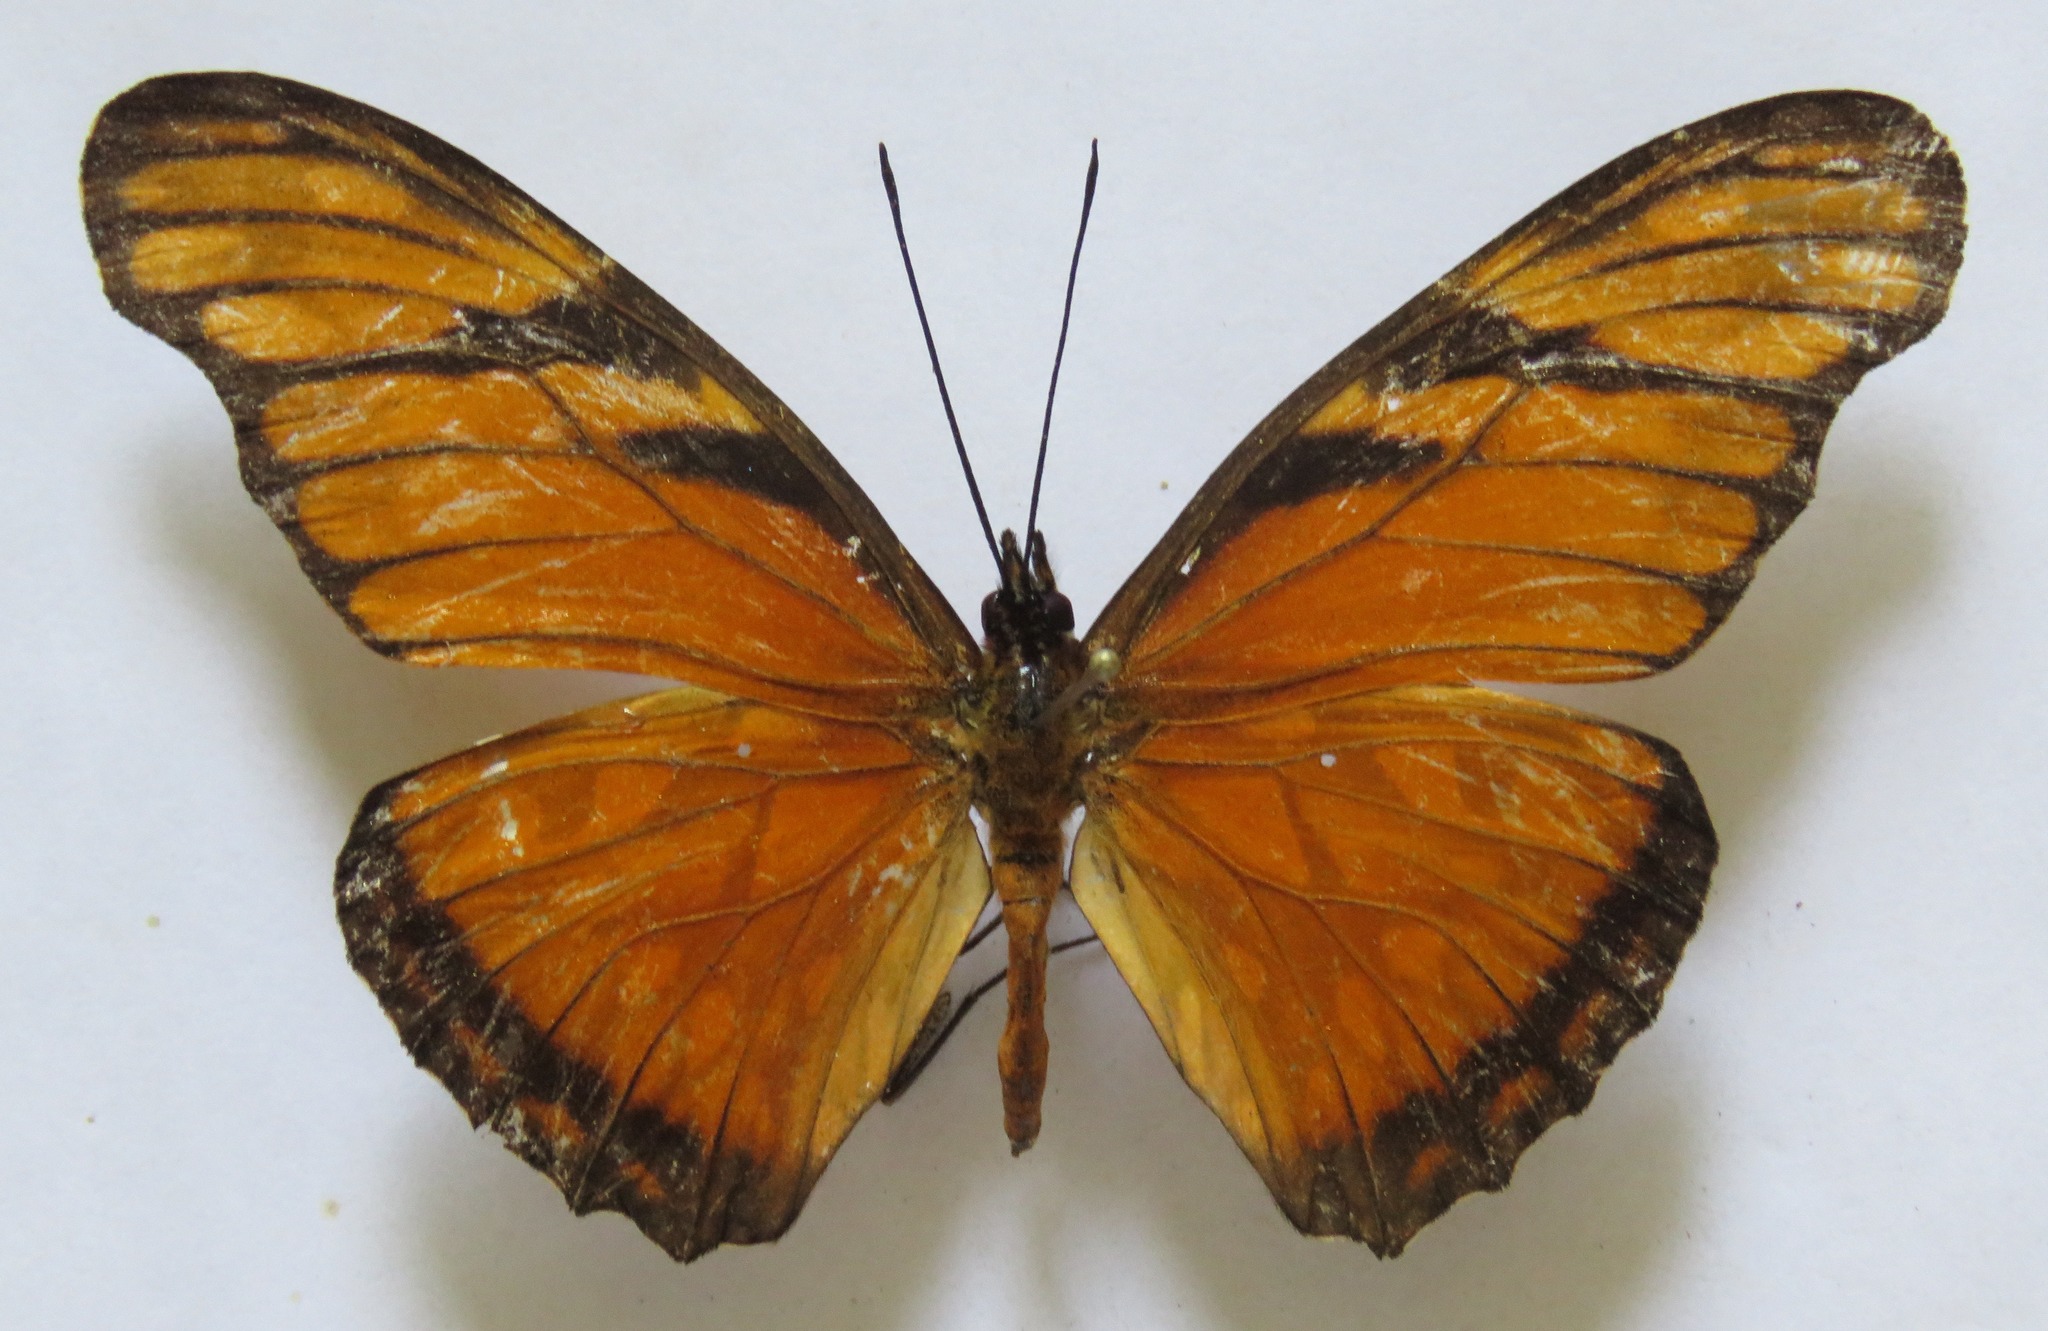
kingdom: Animalia
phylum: Arthropoda
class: Insecta
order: Lepidoptera
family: Nymphalidae
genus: Dione
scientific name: Dione juno
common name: Juno silverspot
